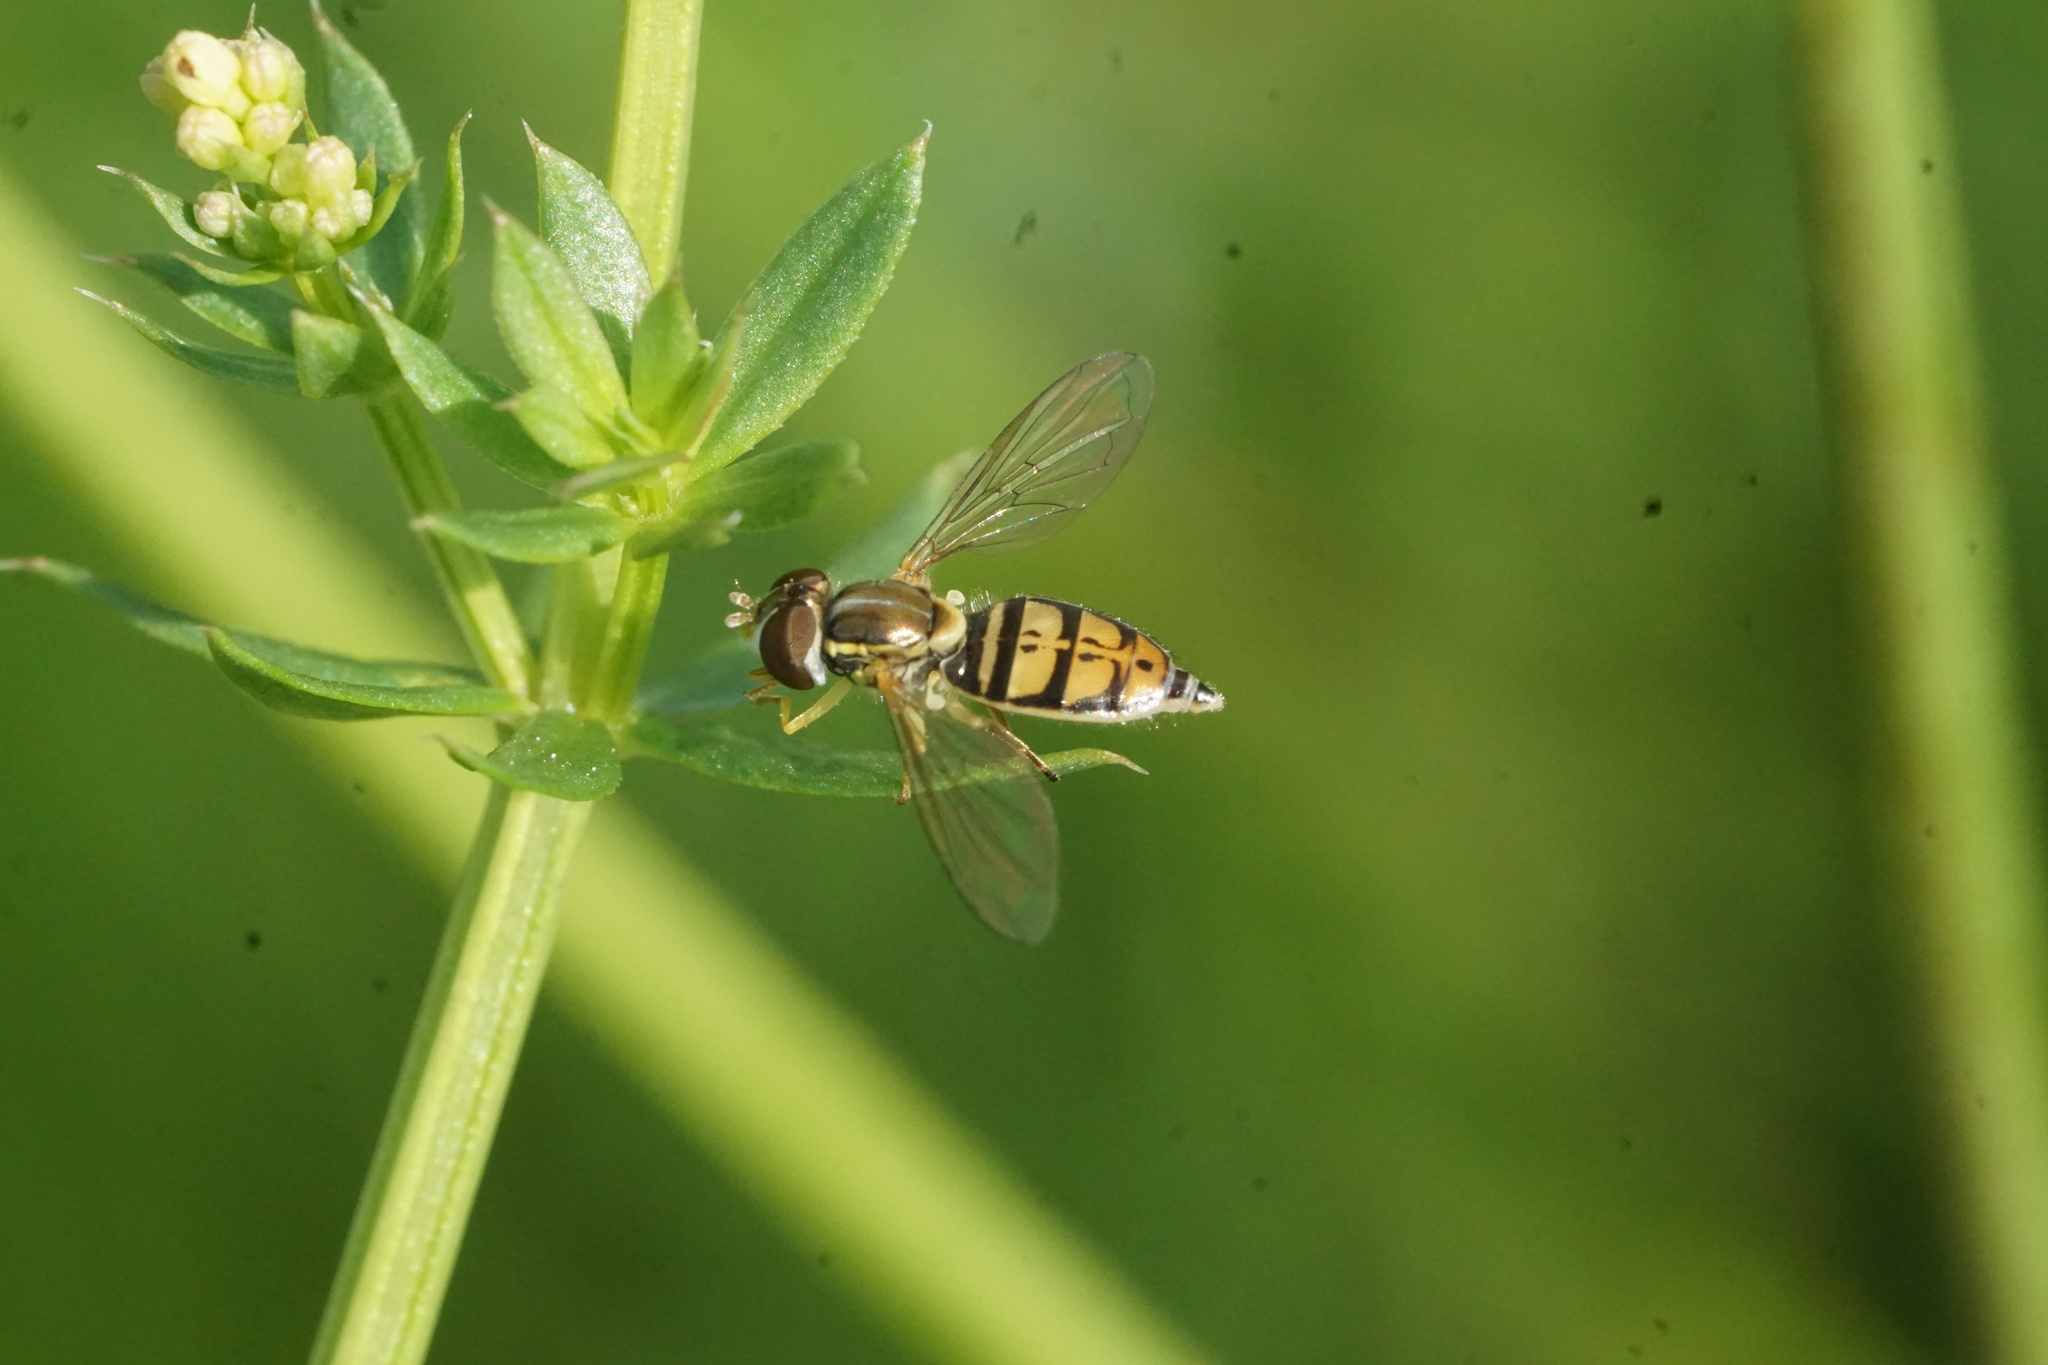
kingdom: Animalia
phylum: Arthropoda
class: Insecta
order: Diptera
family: Syrphidae
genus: Toxomerus
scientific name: Toxomerus marginatus
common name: Syrphid fly
